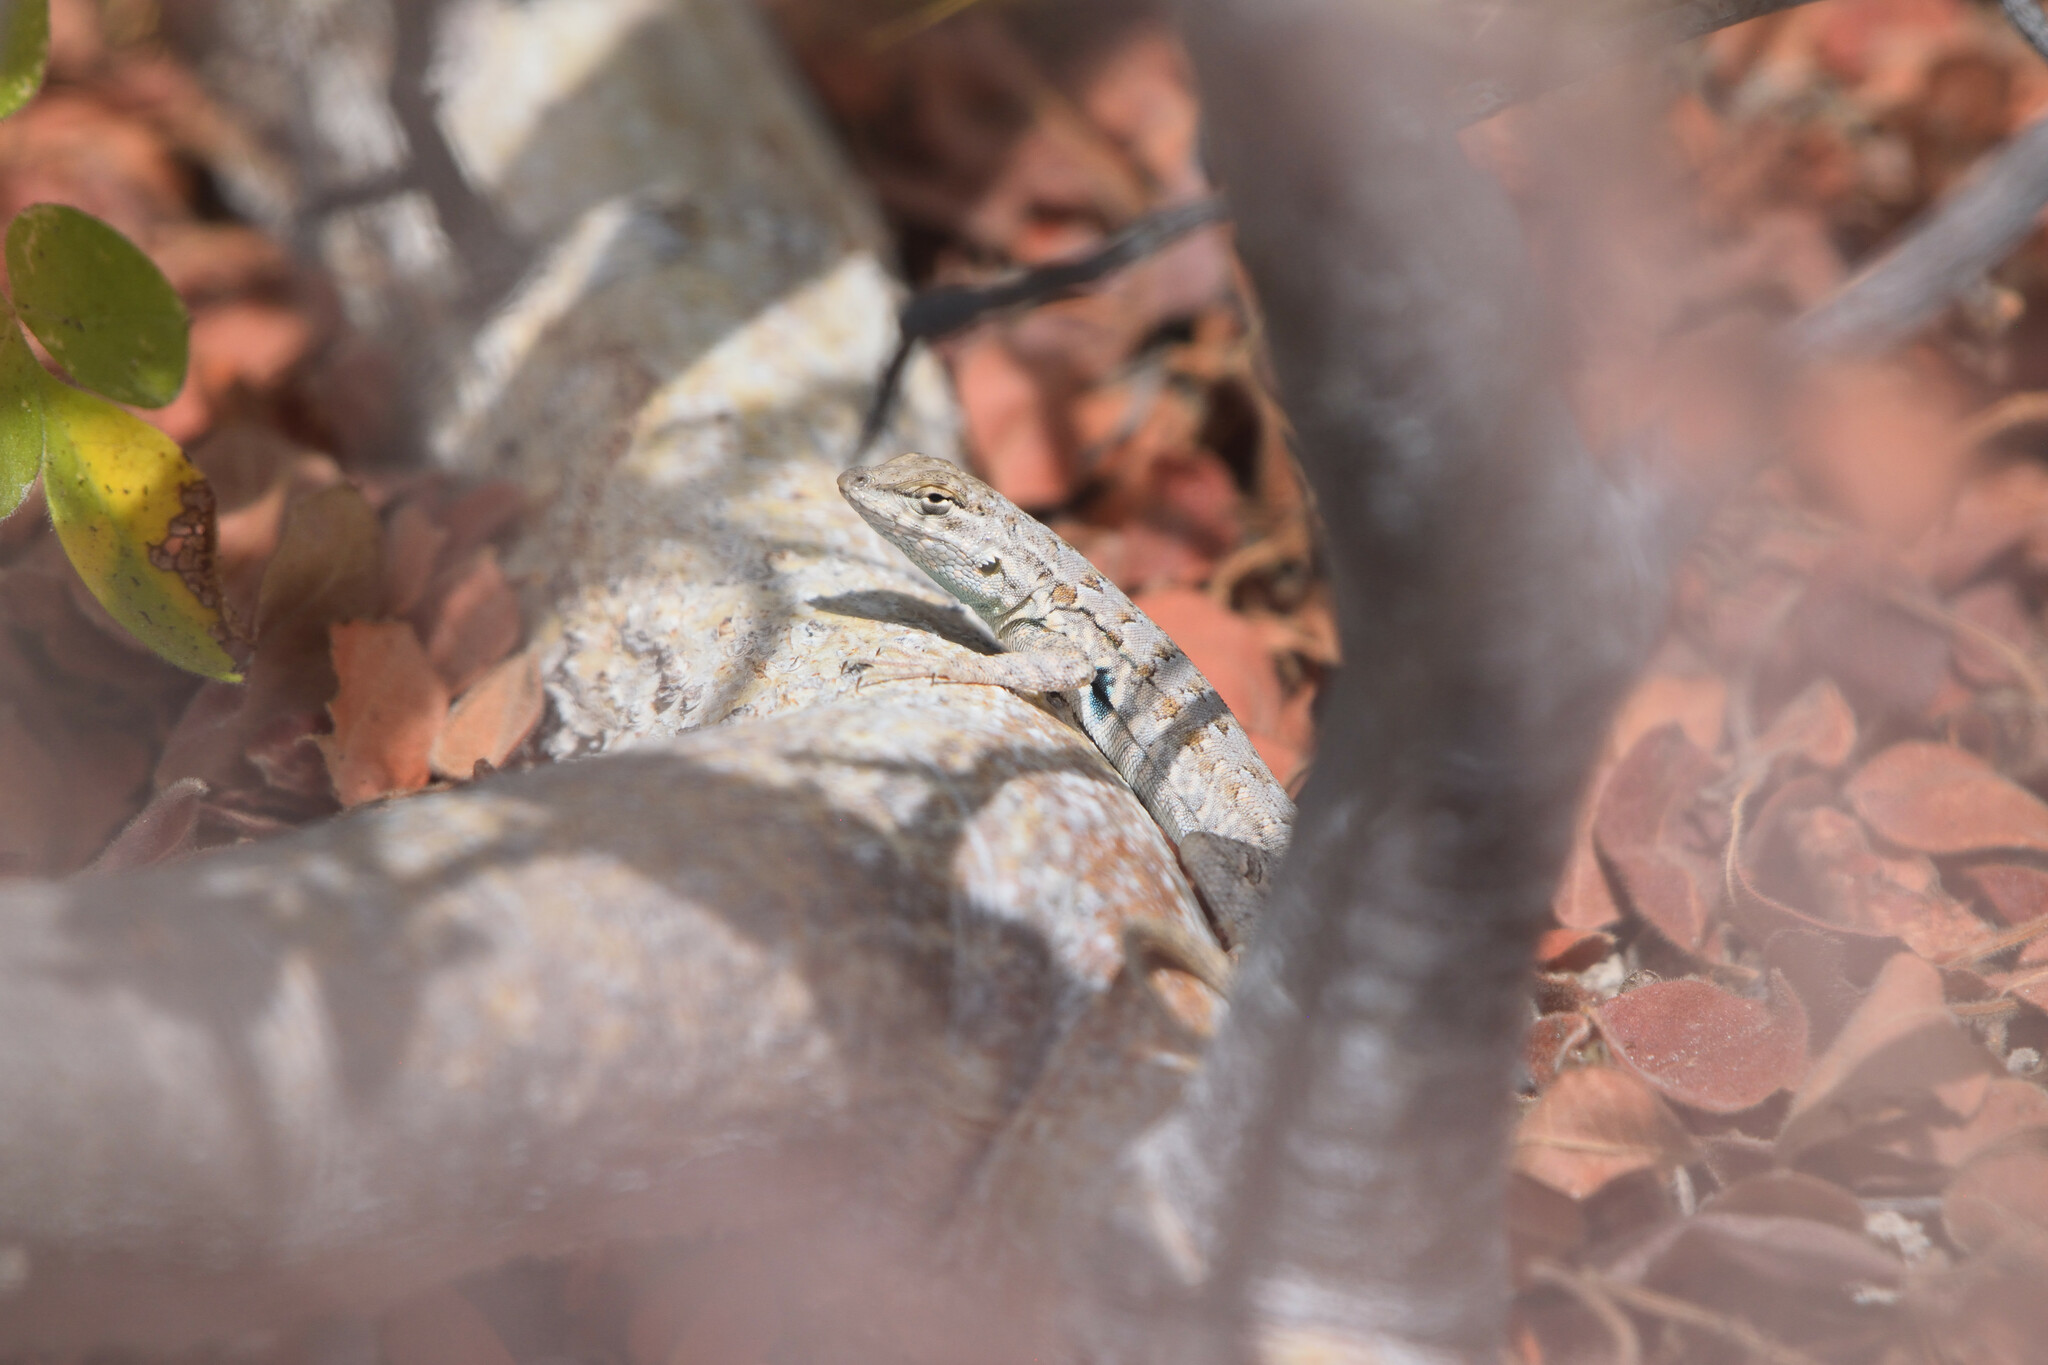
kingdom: Animalia
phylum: Chordata
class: Squamata
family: Phrynosomatidae
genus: Uta
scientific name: Uta stansburiana
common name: Side-blotched lizard
